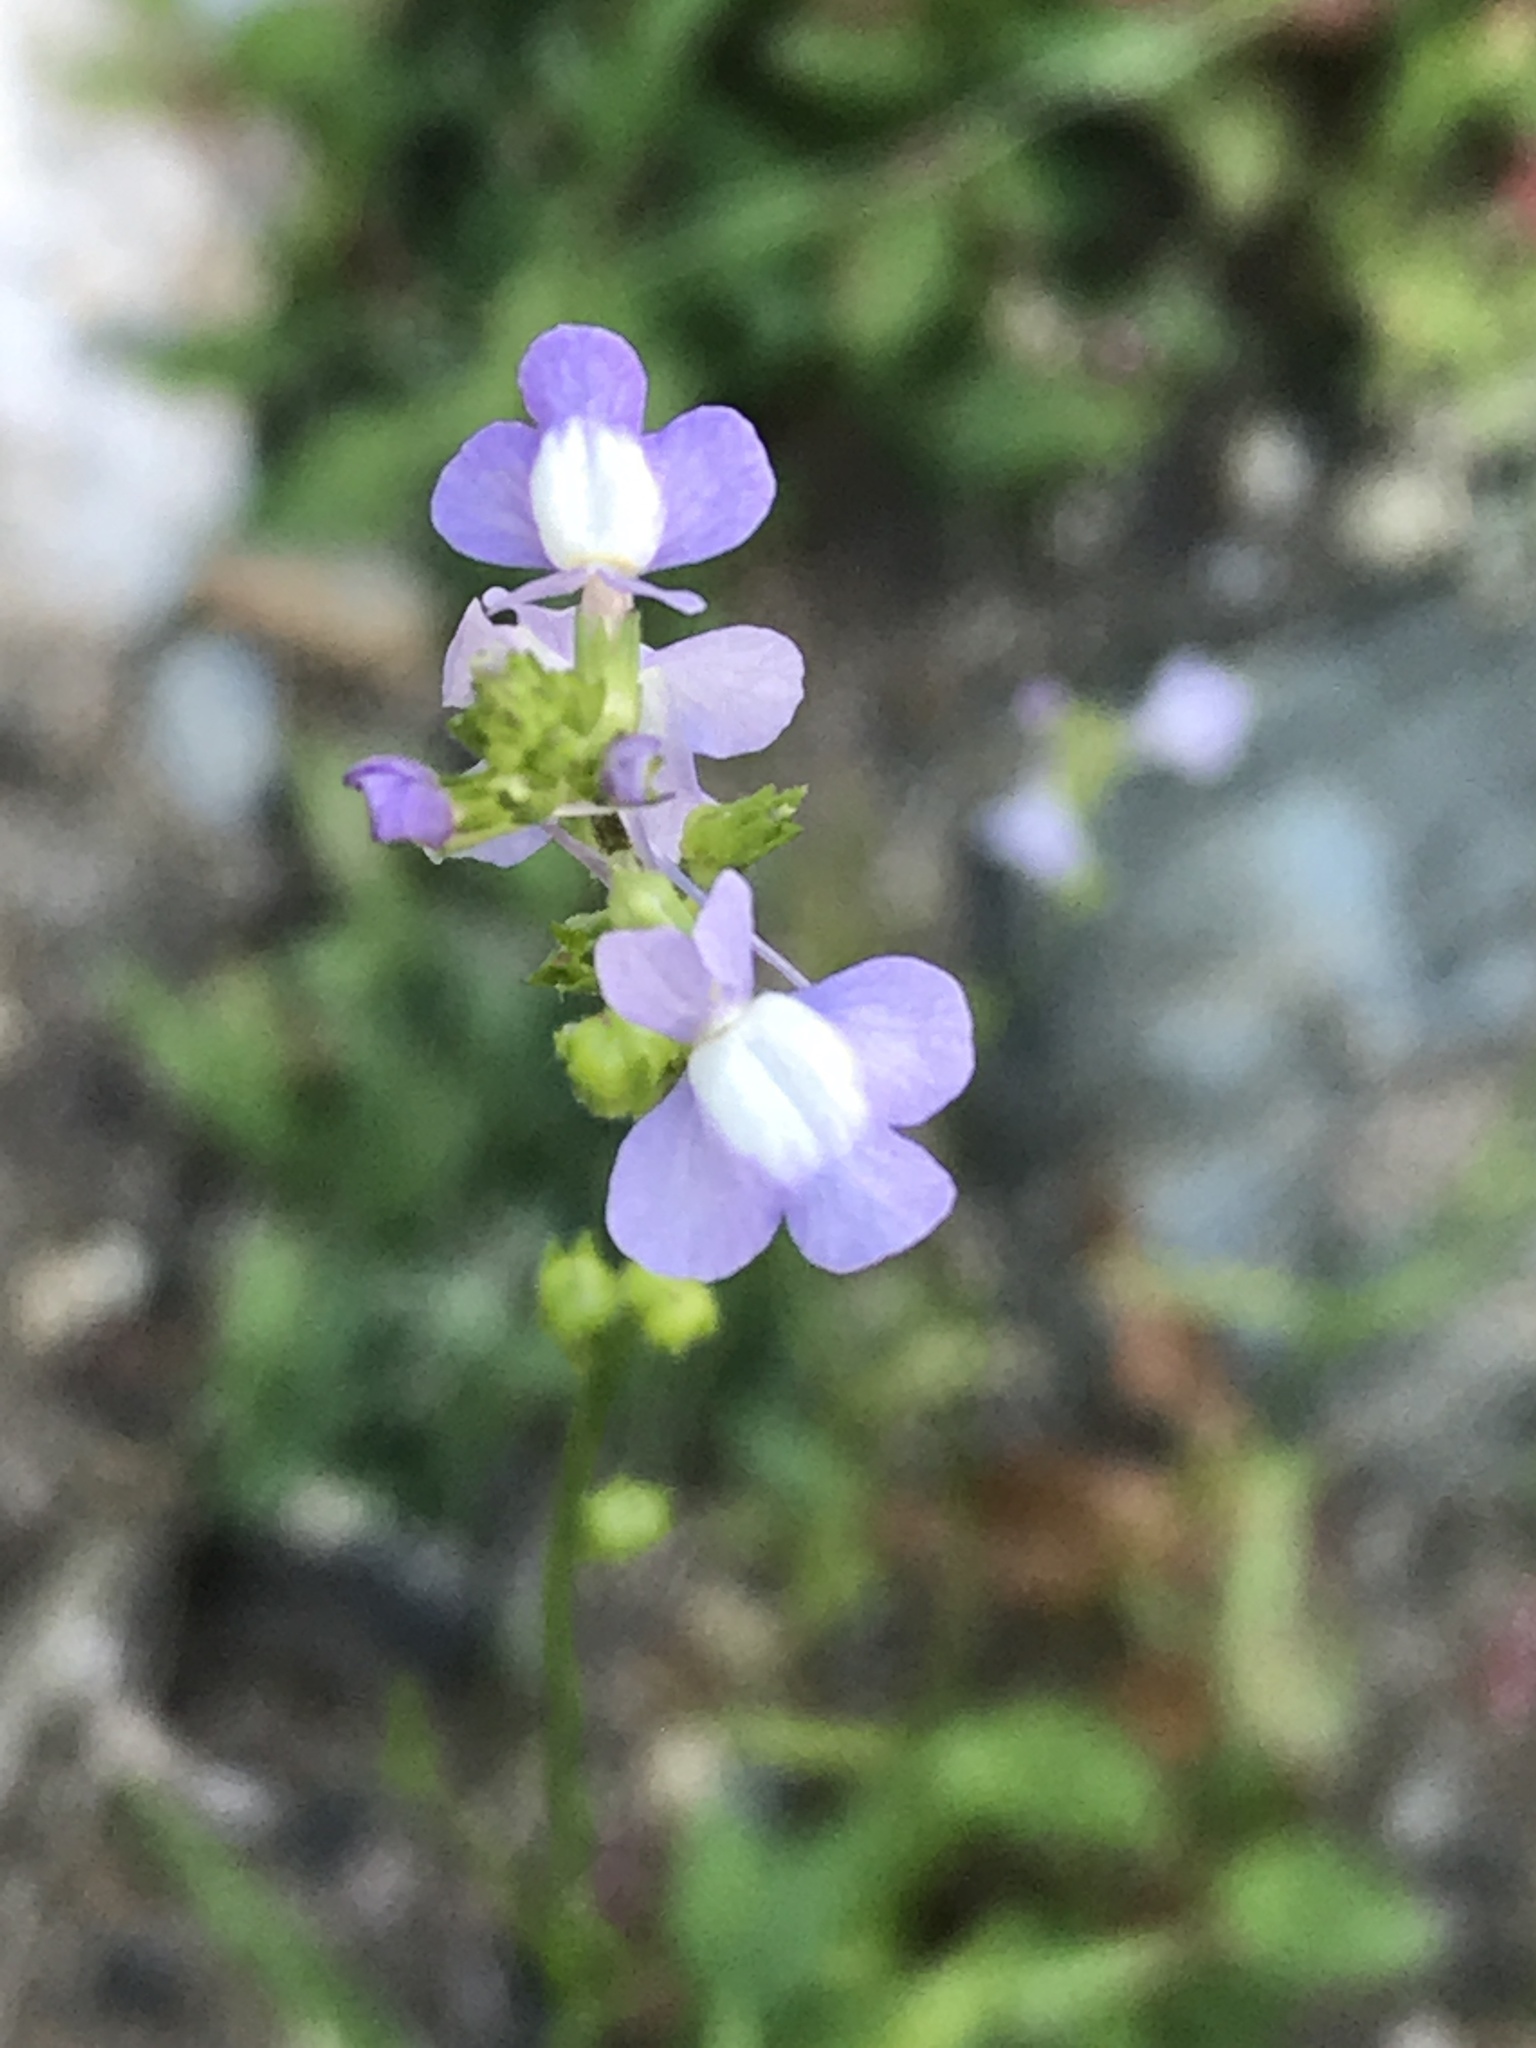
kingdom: Plantae
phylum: Tracheophyta
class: Magnoliopsida
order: Lamiales
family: Plantaginaceae
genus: Nuttallanthus
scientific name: Nuttallanthus canadensis
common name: Blue toadflax
